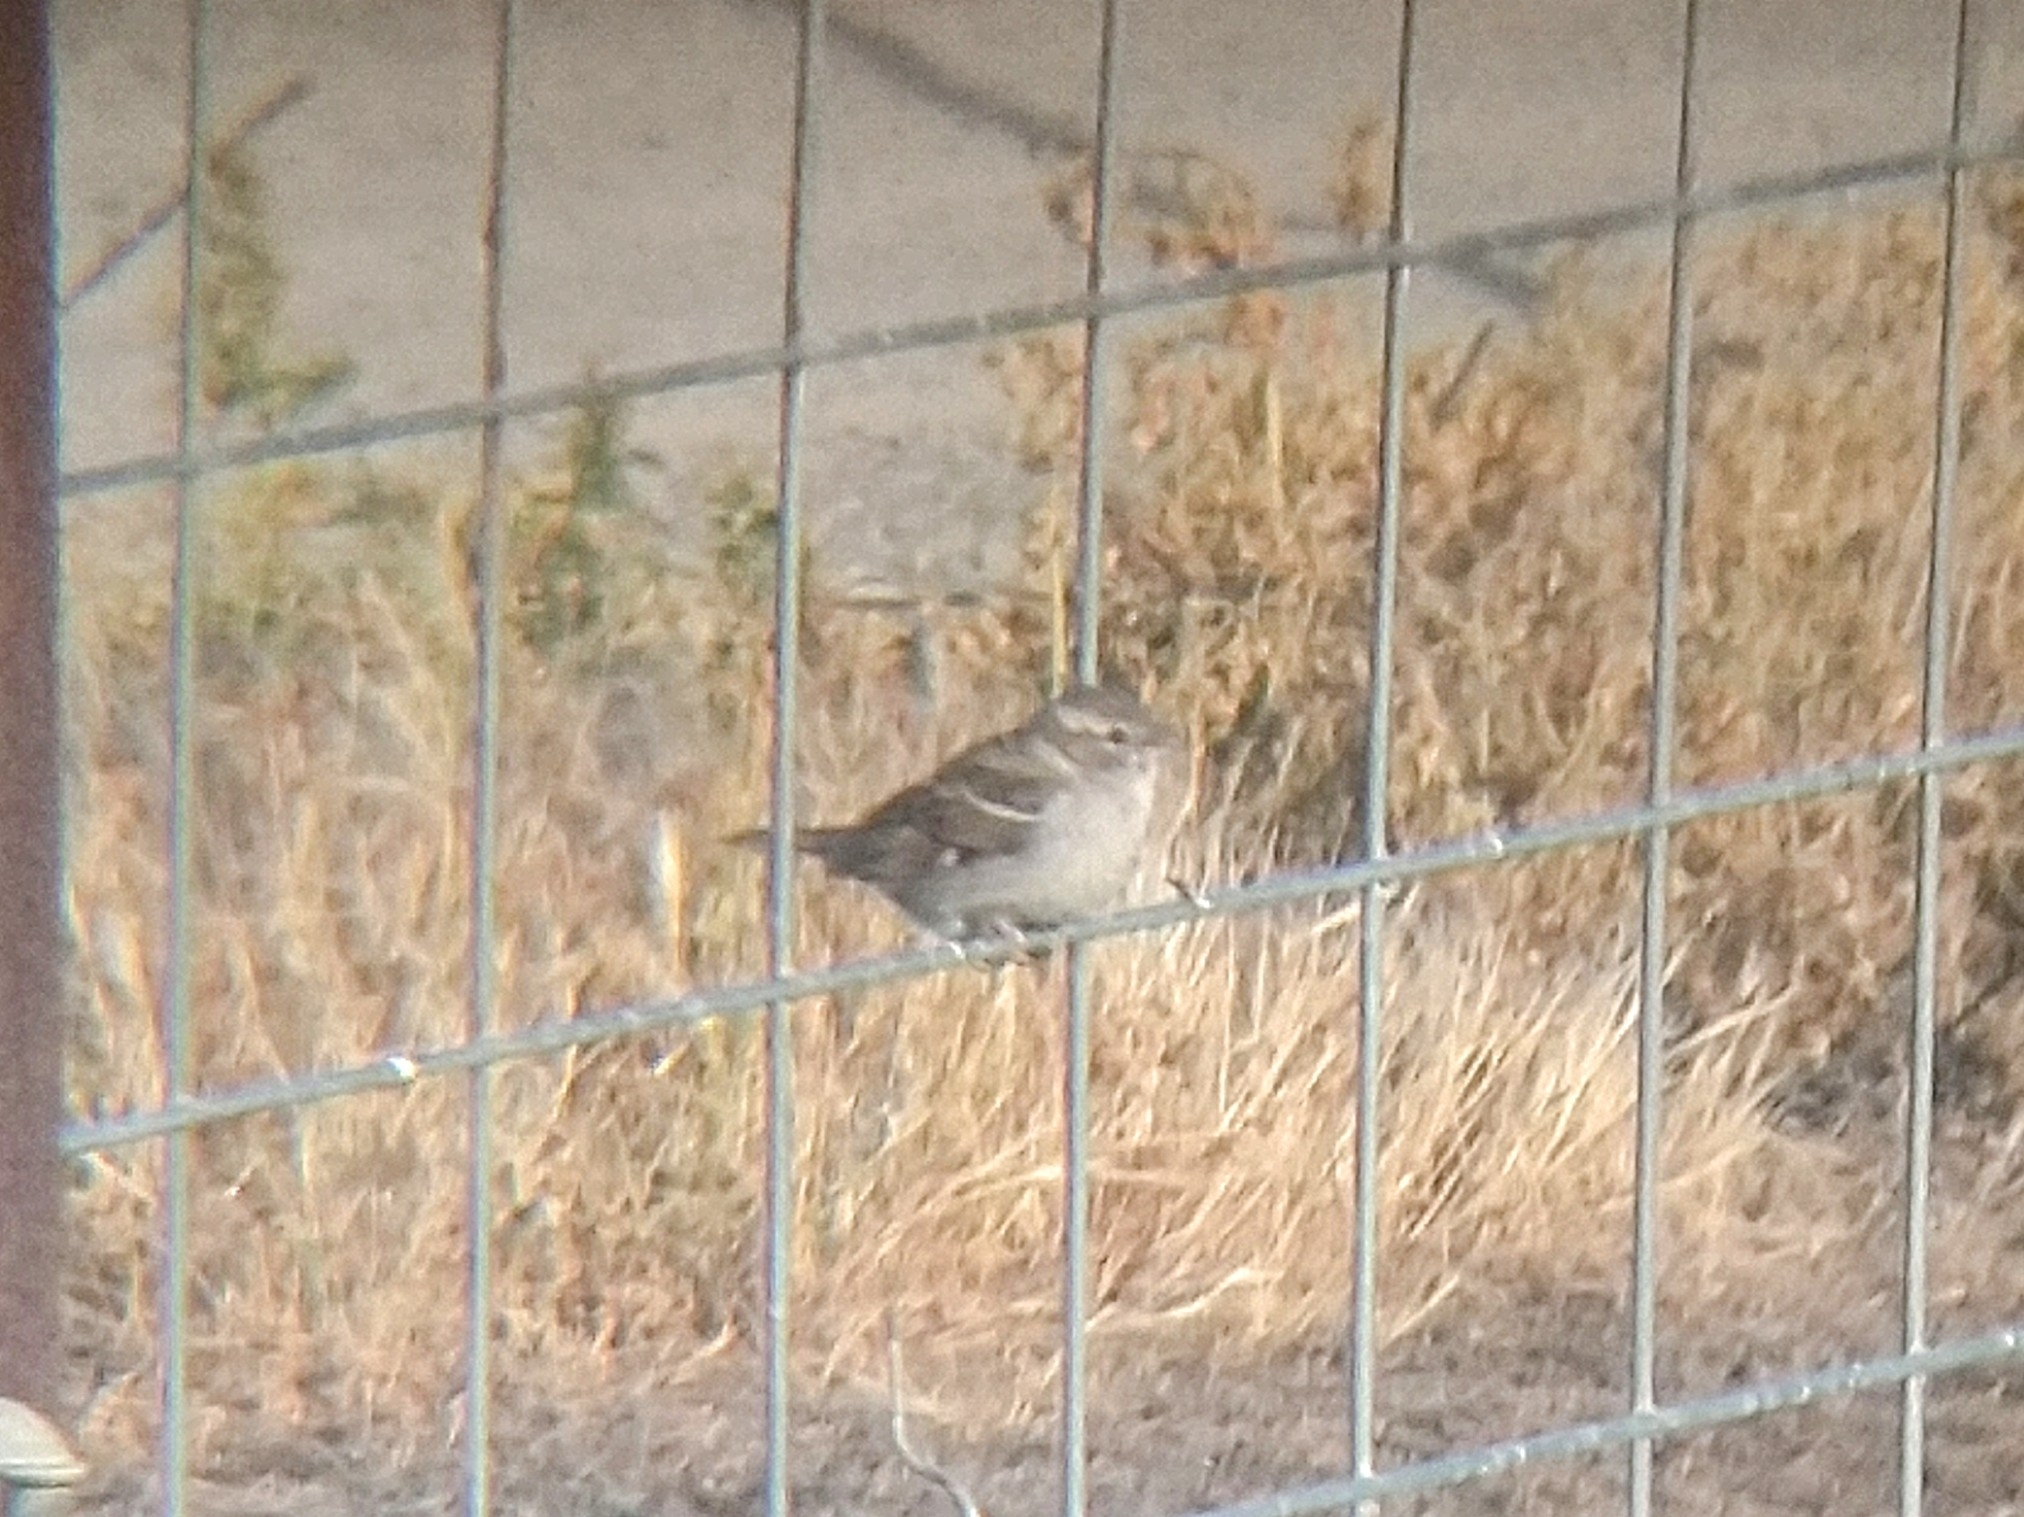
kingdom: Animalia
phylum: Chordata
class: Aves
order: Passeriformes
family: Passeridae
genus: Passer
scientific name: Passer domesticus
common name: House sparrow
